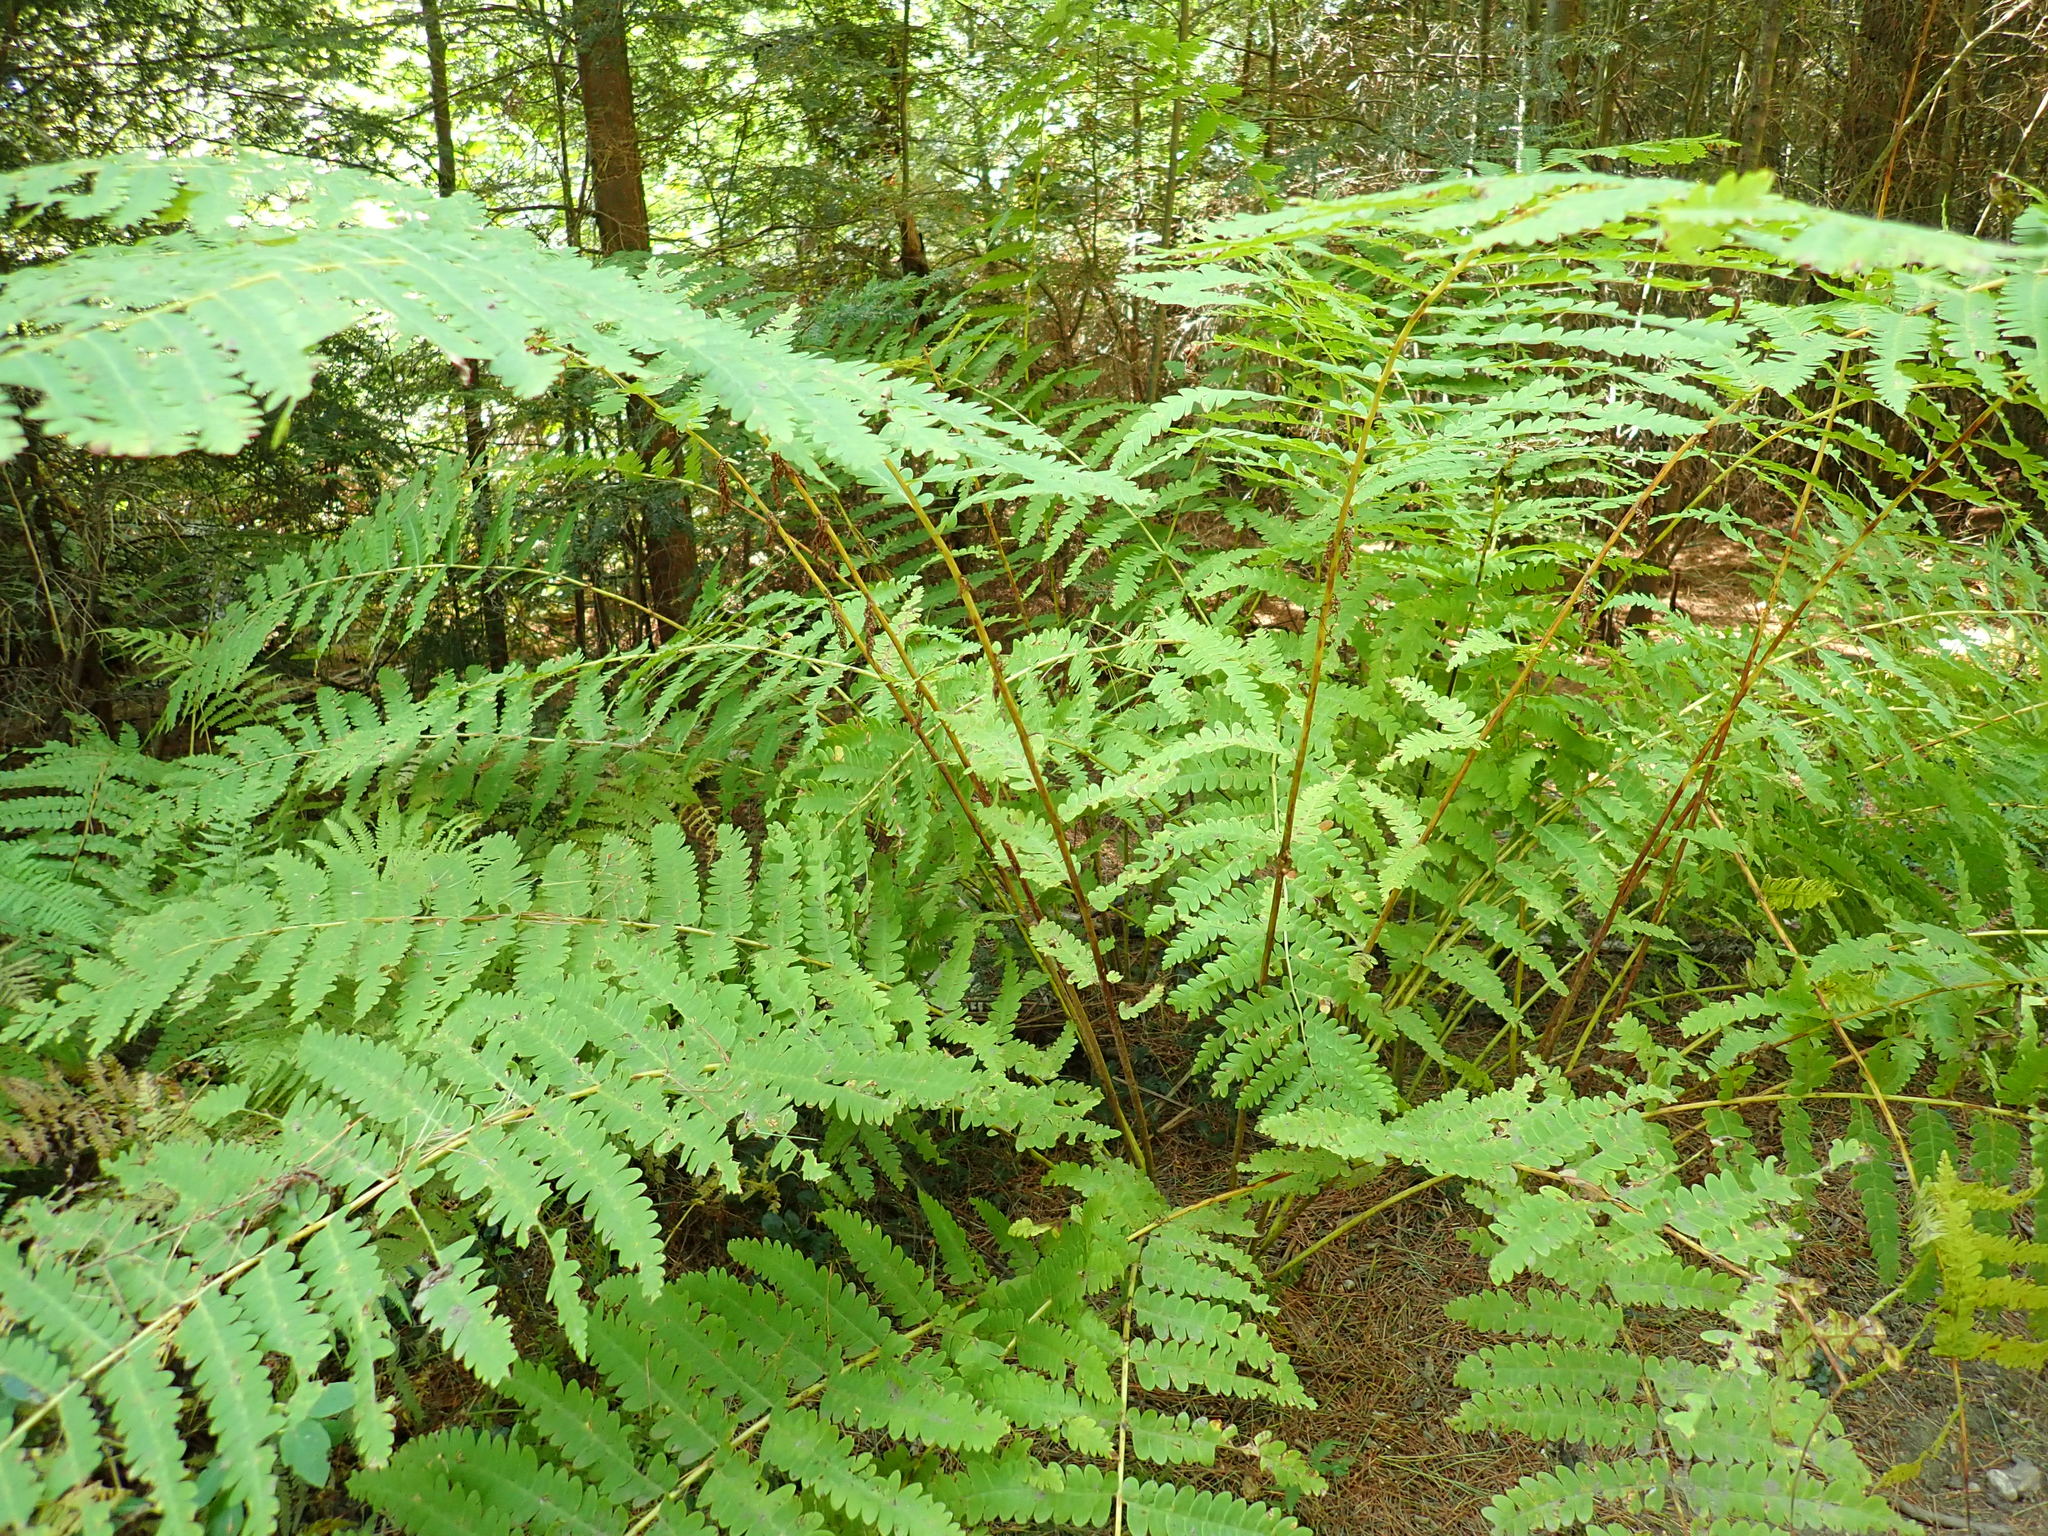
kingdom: Plantae
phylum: Tracheophyta
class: Polypodiopsida
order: Osmundales
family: Osmundaceae
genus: Claytosmunda
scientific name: Claytosmunda claytoniana
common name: Clayton's fern
